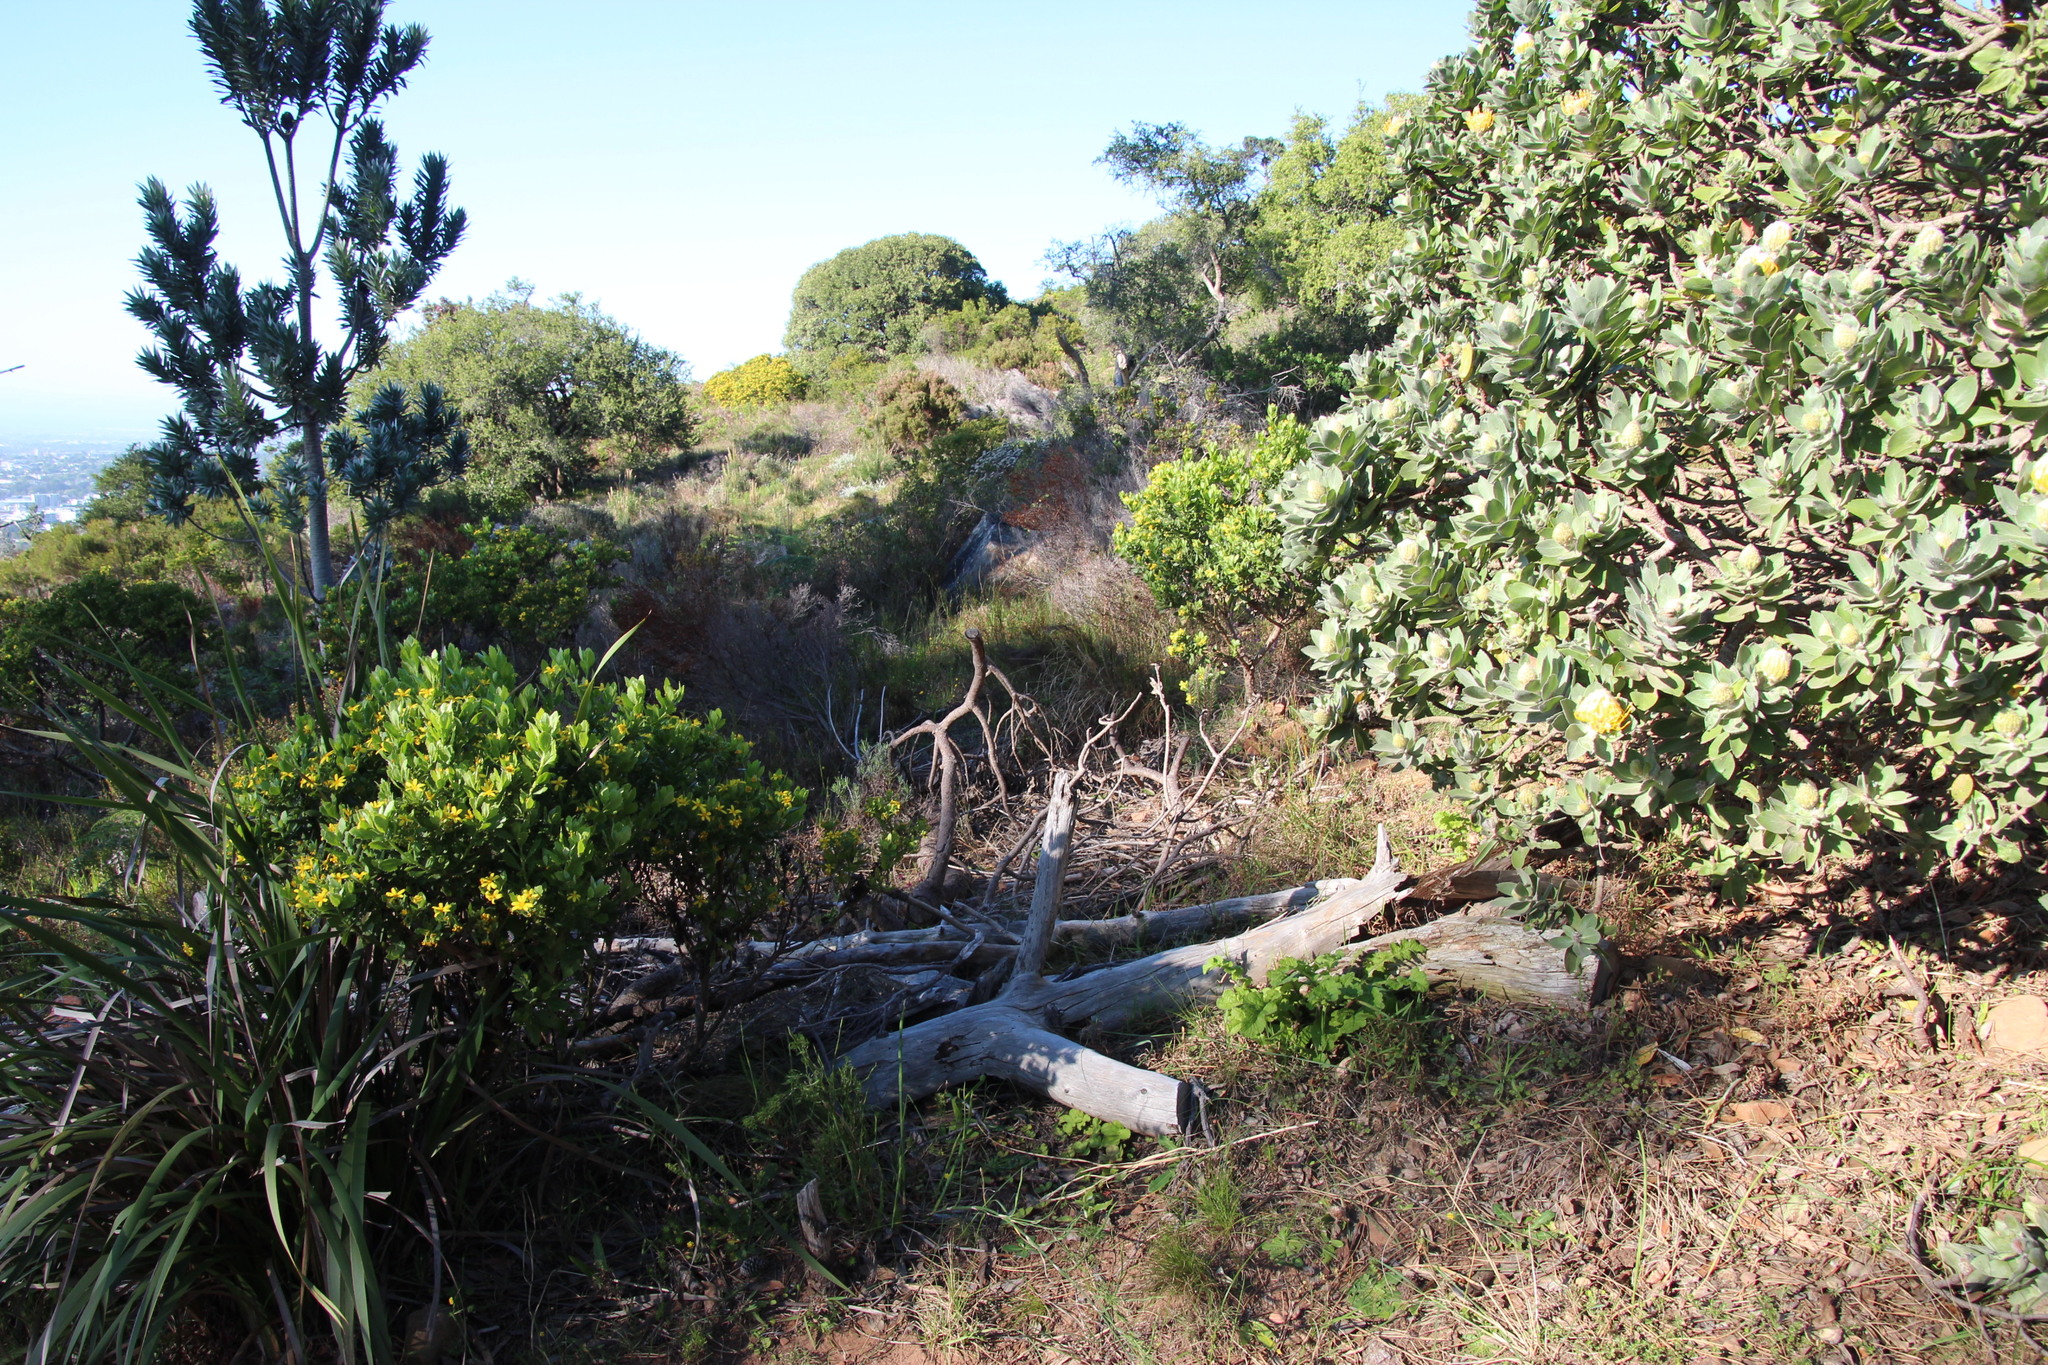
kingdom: Plantae
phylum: Tracheophyta
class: Magnoliopsida
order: Proteales
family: Proteaceae
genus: Leucospermum
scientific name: Leucospermum conocarpodendron
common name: Tree pincushion
